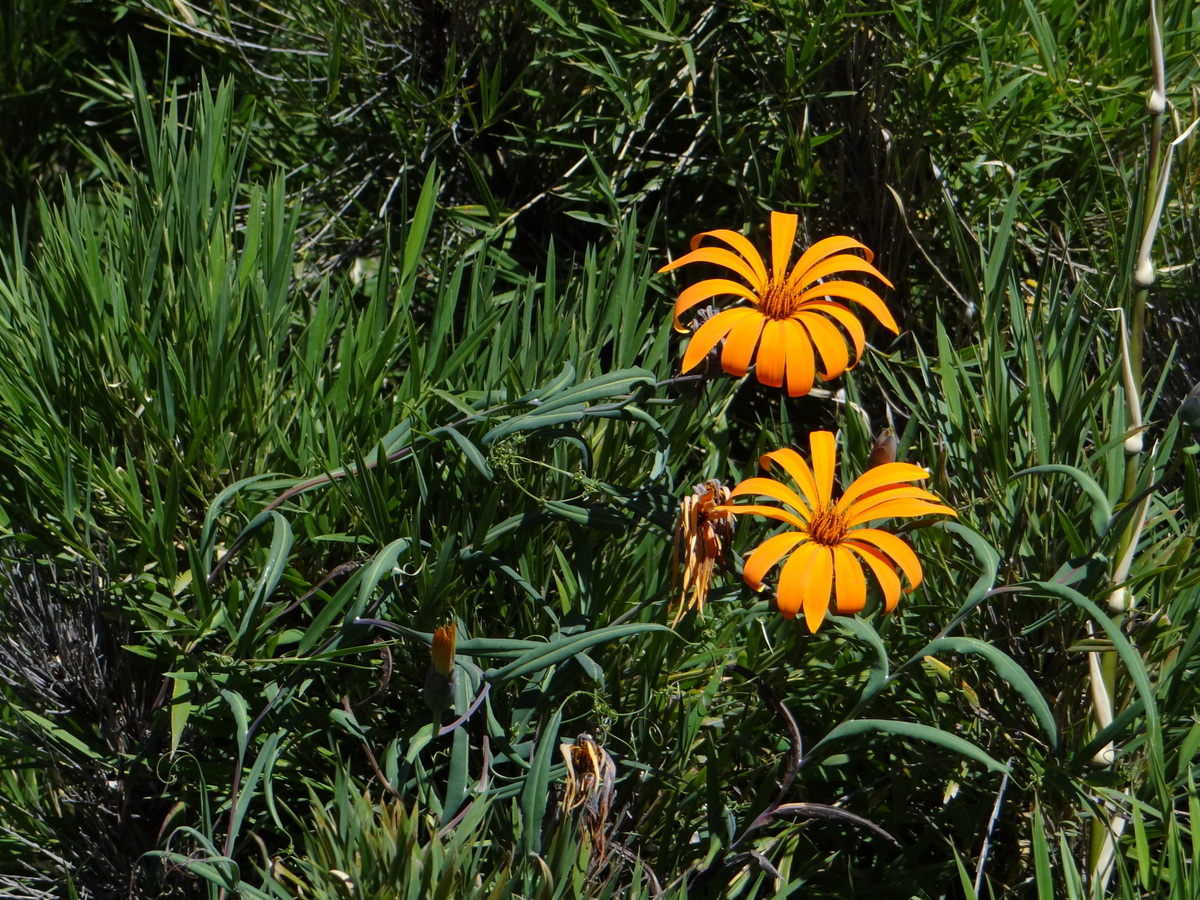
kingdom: Plantae
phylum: Tracheophyta
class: Magnoliopsida
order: Asterales
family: Asteraceae
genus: Mutisia
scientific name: Mutisia decurrens
